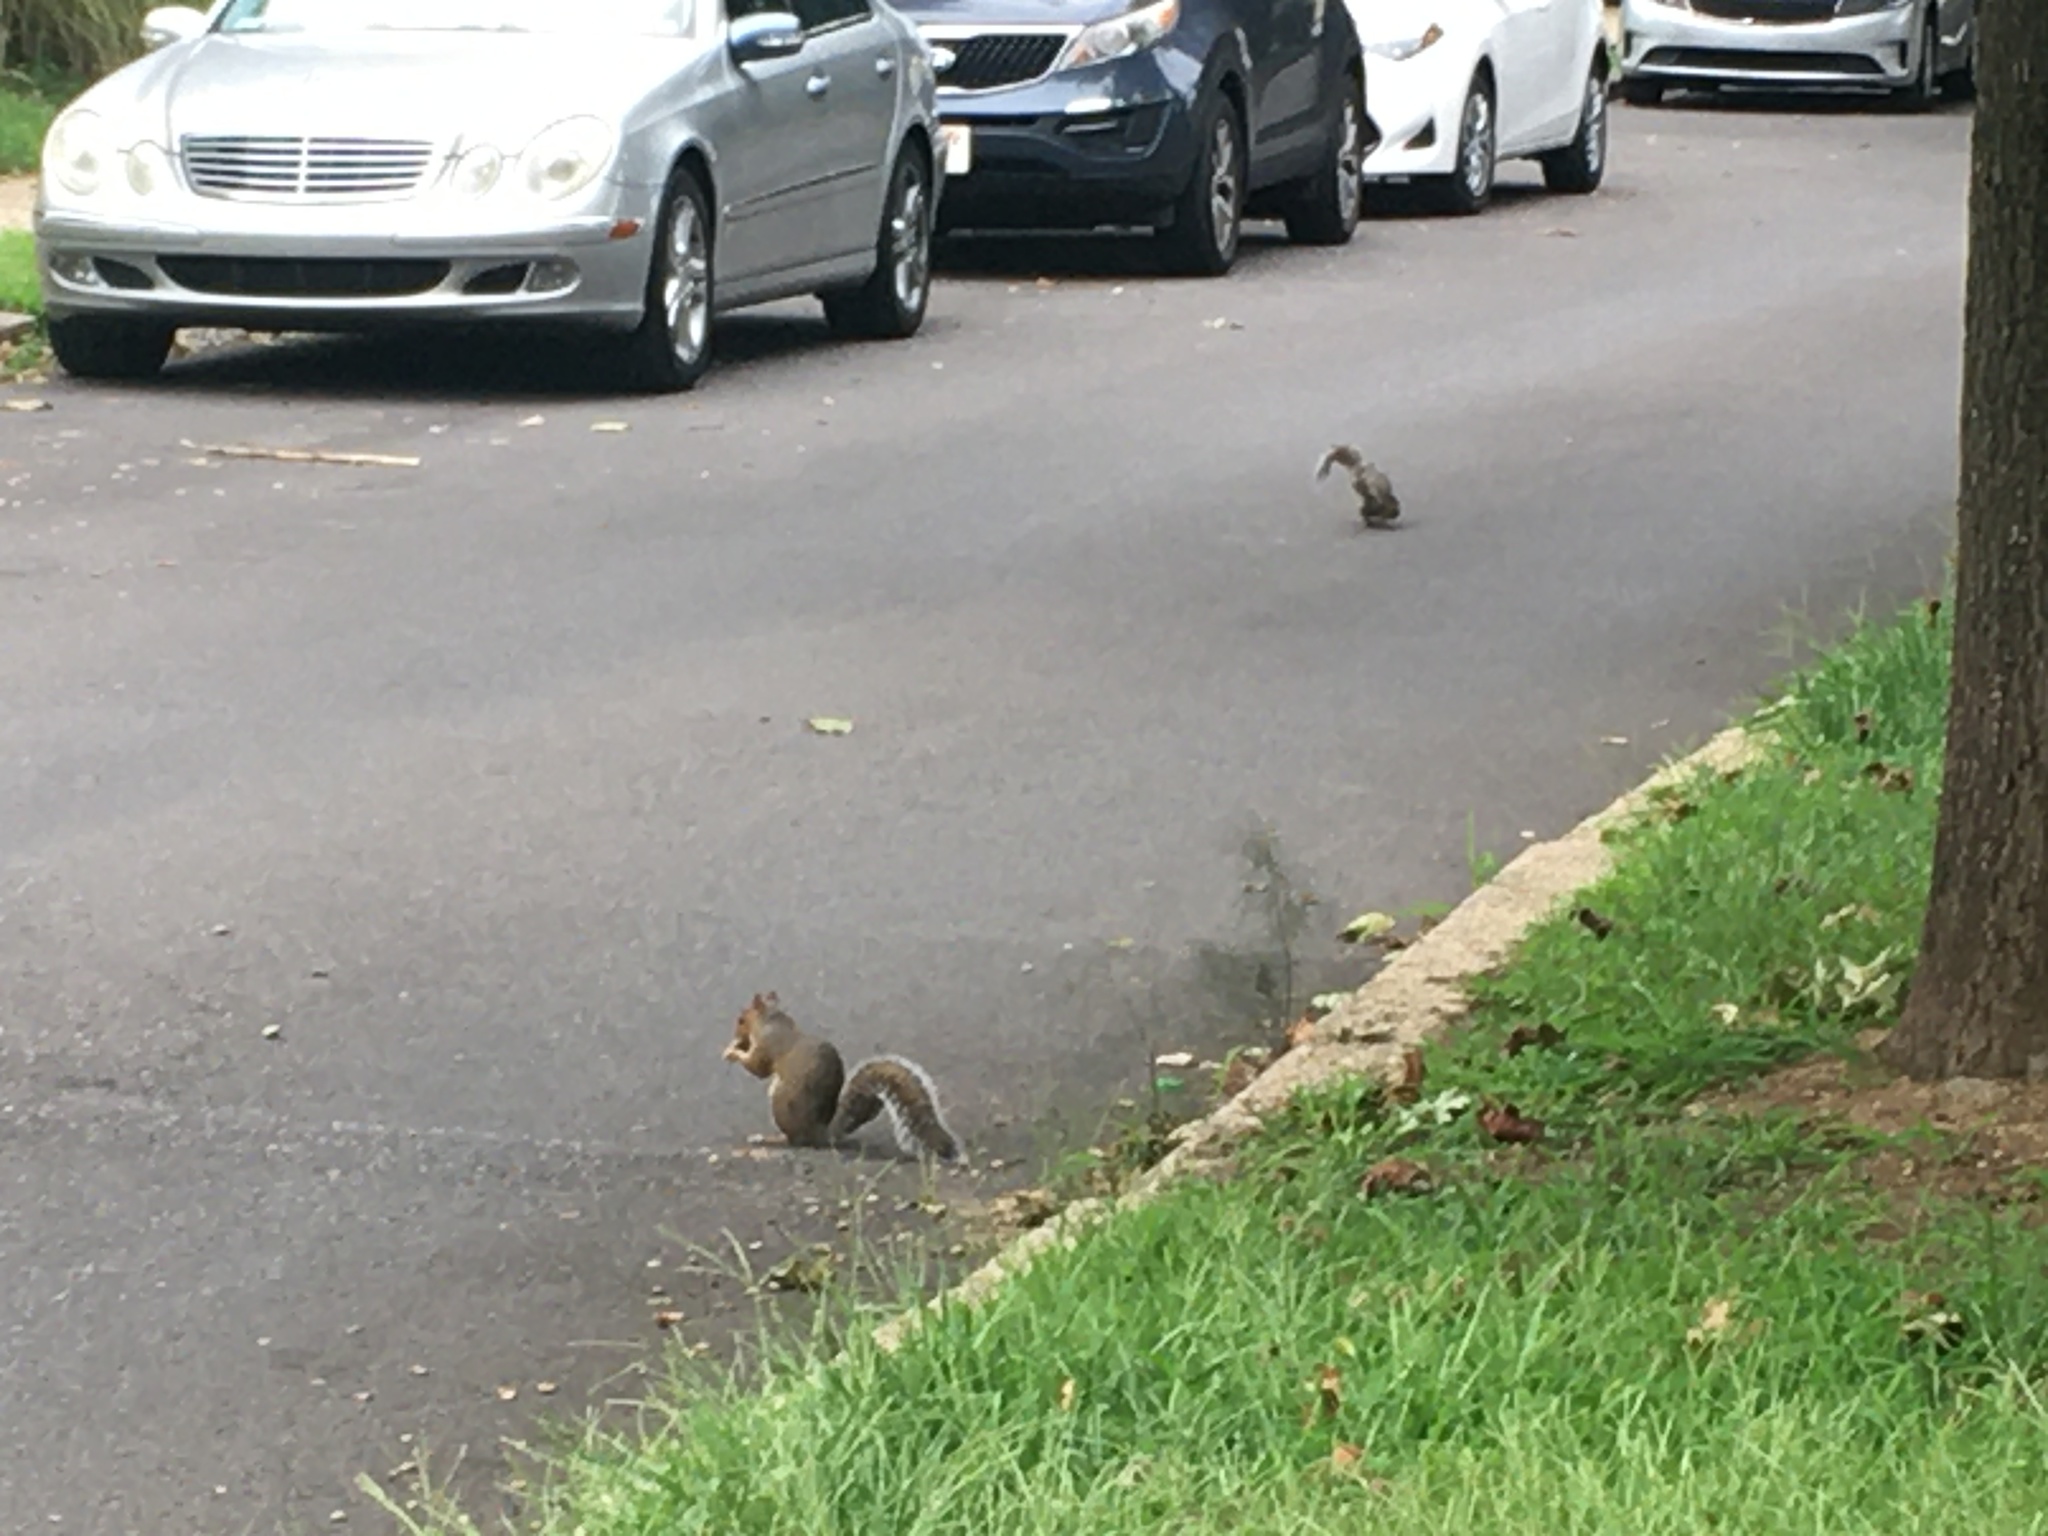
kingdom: Animalia
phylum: Chordata
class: Mammalia
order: Rodentia
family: Sciuridae
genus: Sciurus
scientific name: Sciurus carolinensis
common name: Eastern gray squirrel
